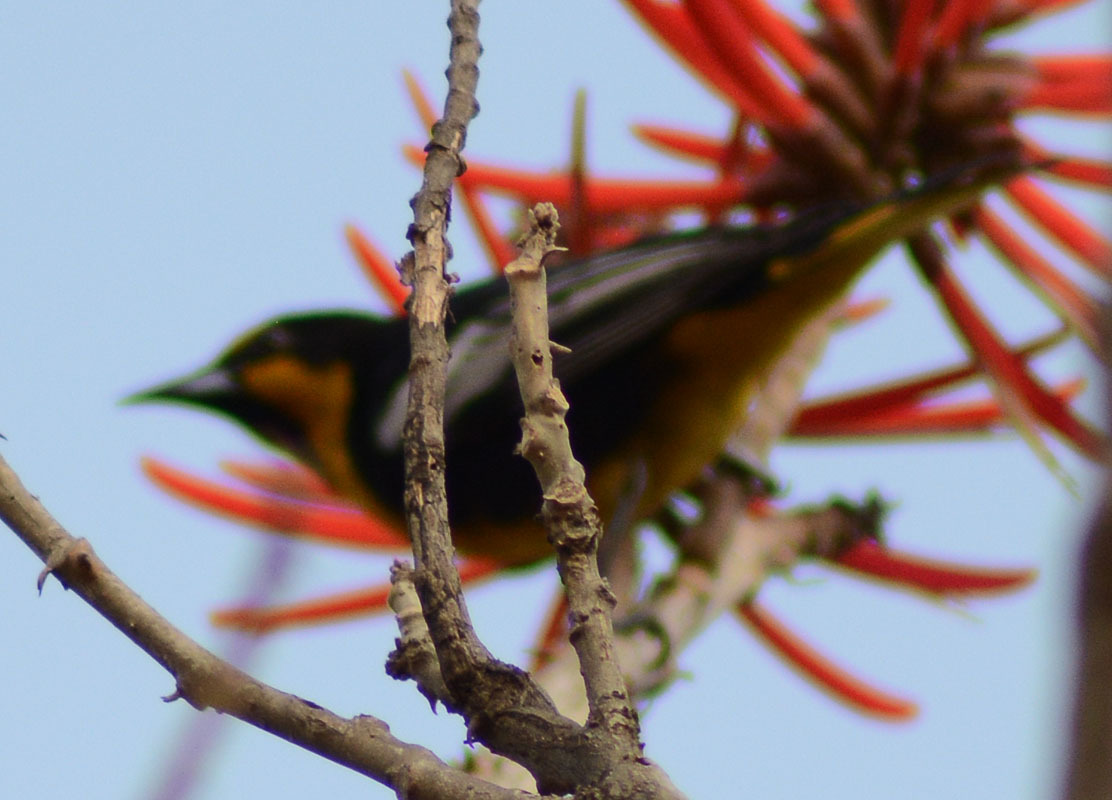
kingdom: Animalia
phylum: Chordata
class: Aves
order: Passeriformes
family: Icteridae
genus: Icterus
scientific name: Icterus abeillei
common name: Black-backed oriole
